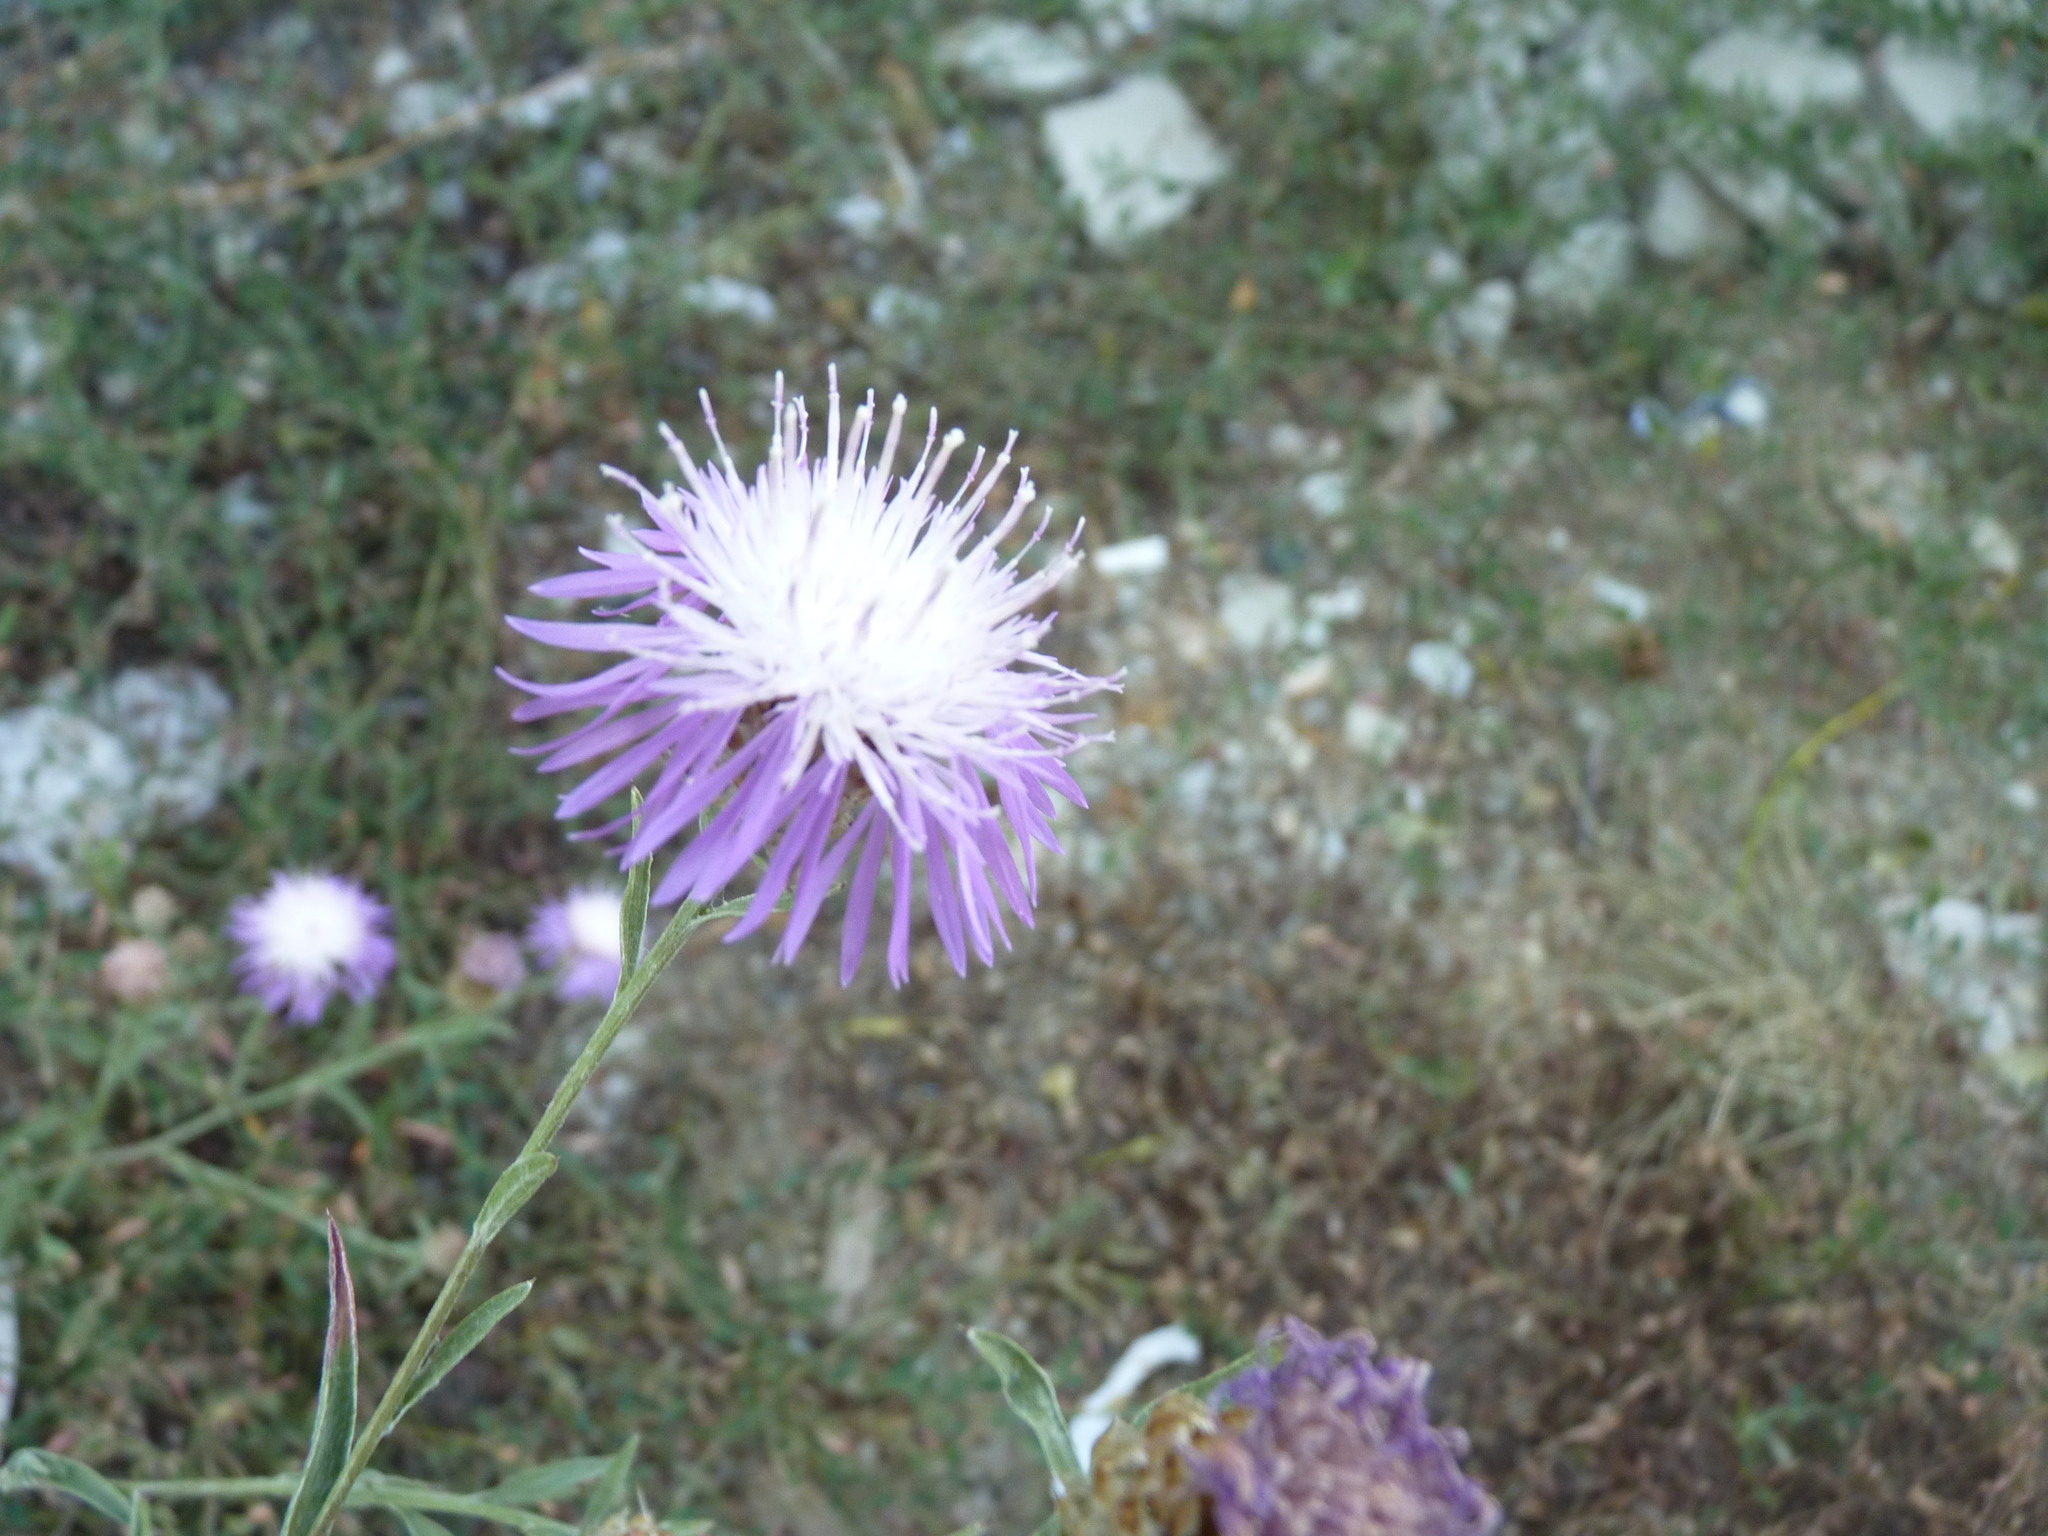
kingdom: Plantae
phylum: Tracheophyta
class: Magnoliopsida
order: Asterales
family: Asteraceae
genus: Centaurea
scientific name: Centaurea jacea
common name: Brown knapweed
